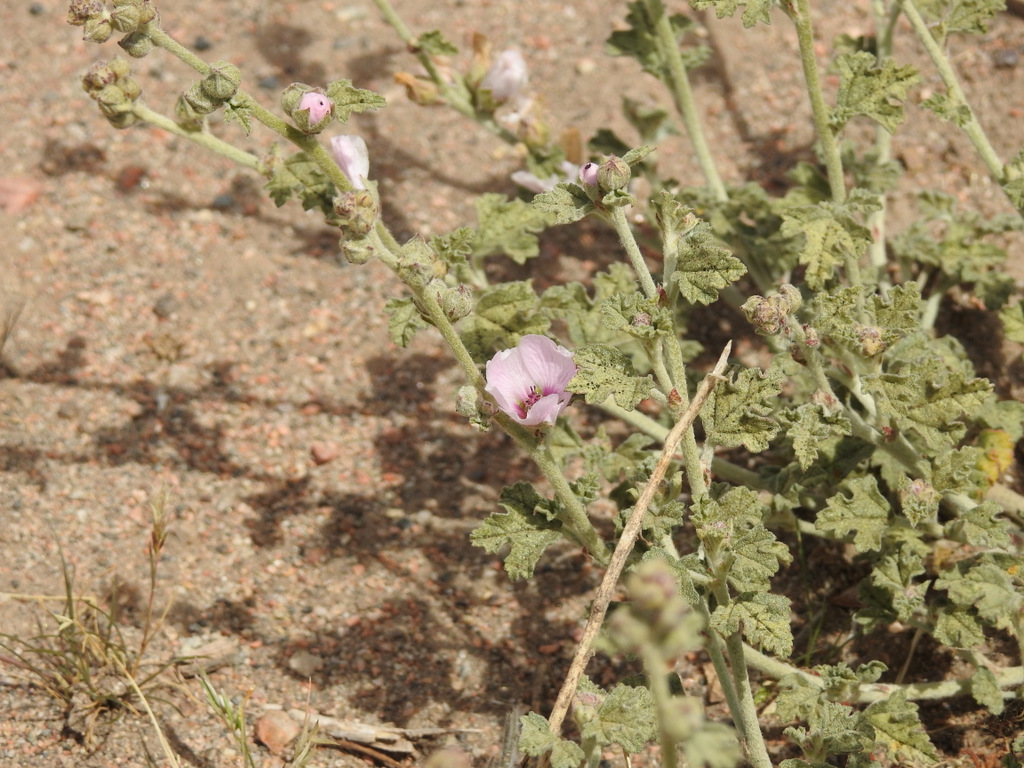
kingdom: Plantae
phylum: Tracheophyta
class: Magnoliopsida
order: Malvales
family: Malvaceae
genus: Sphaeralcea
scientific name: Sphaeralcea mendocina
